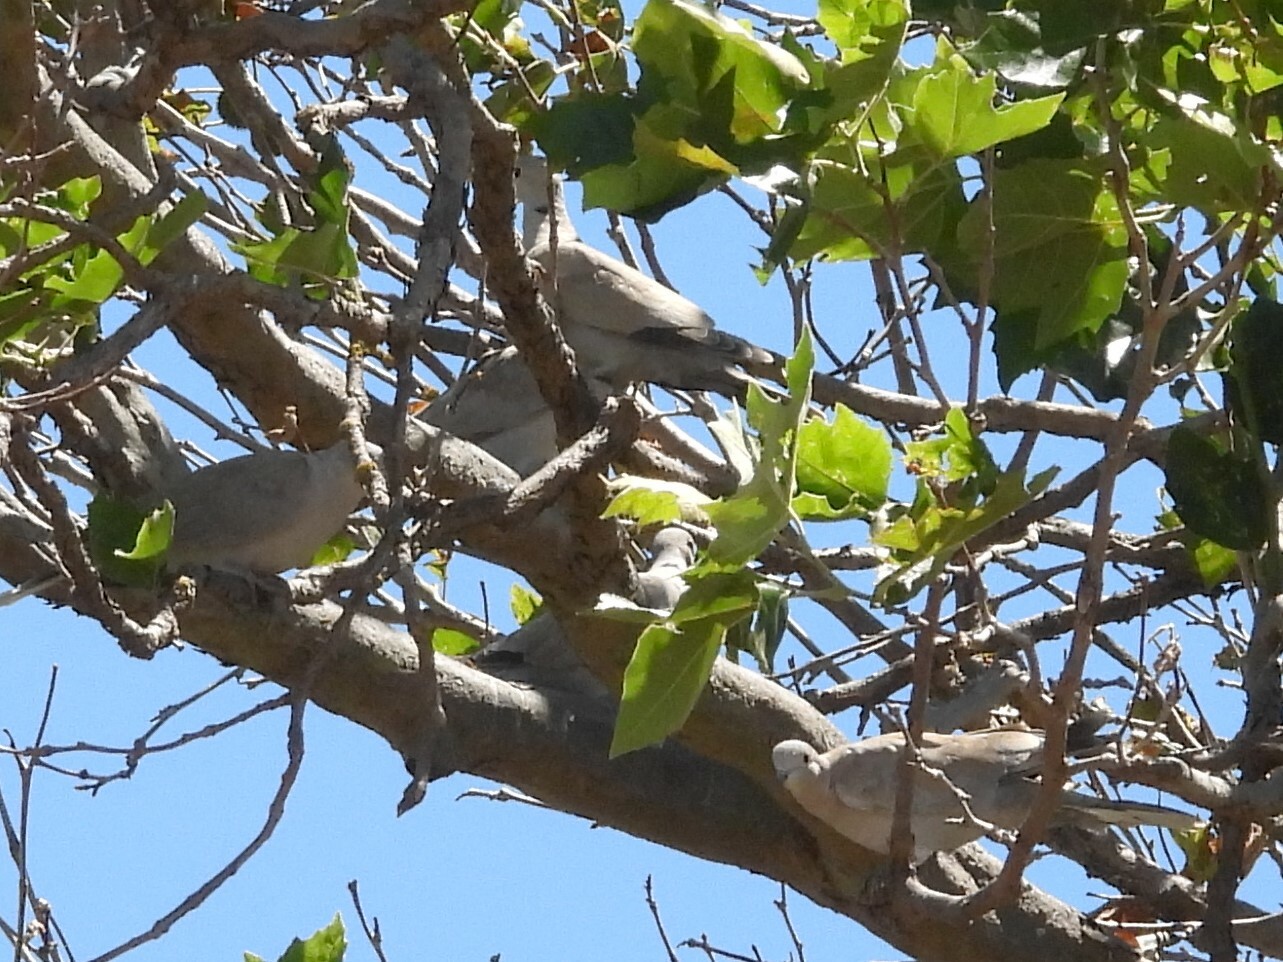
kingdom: Animalia
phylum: Chordata
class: Aves
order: Columbiformes
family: Columbidae
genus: Streptopelia
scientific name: Streptopelia decaocto
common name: Eurasian collared dove
